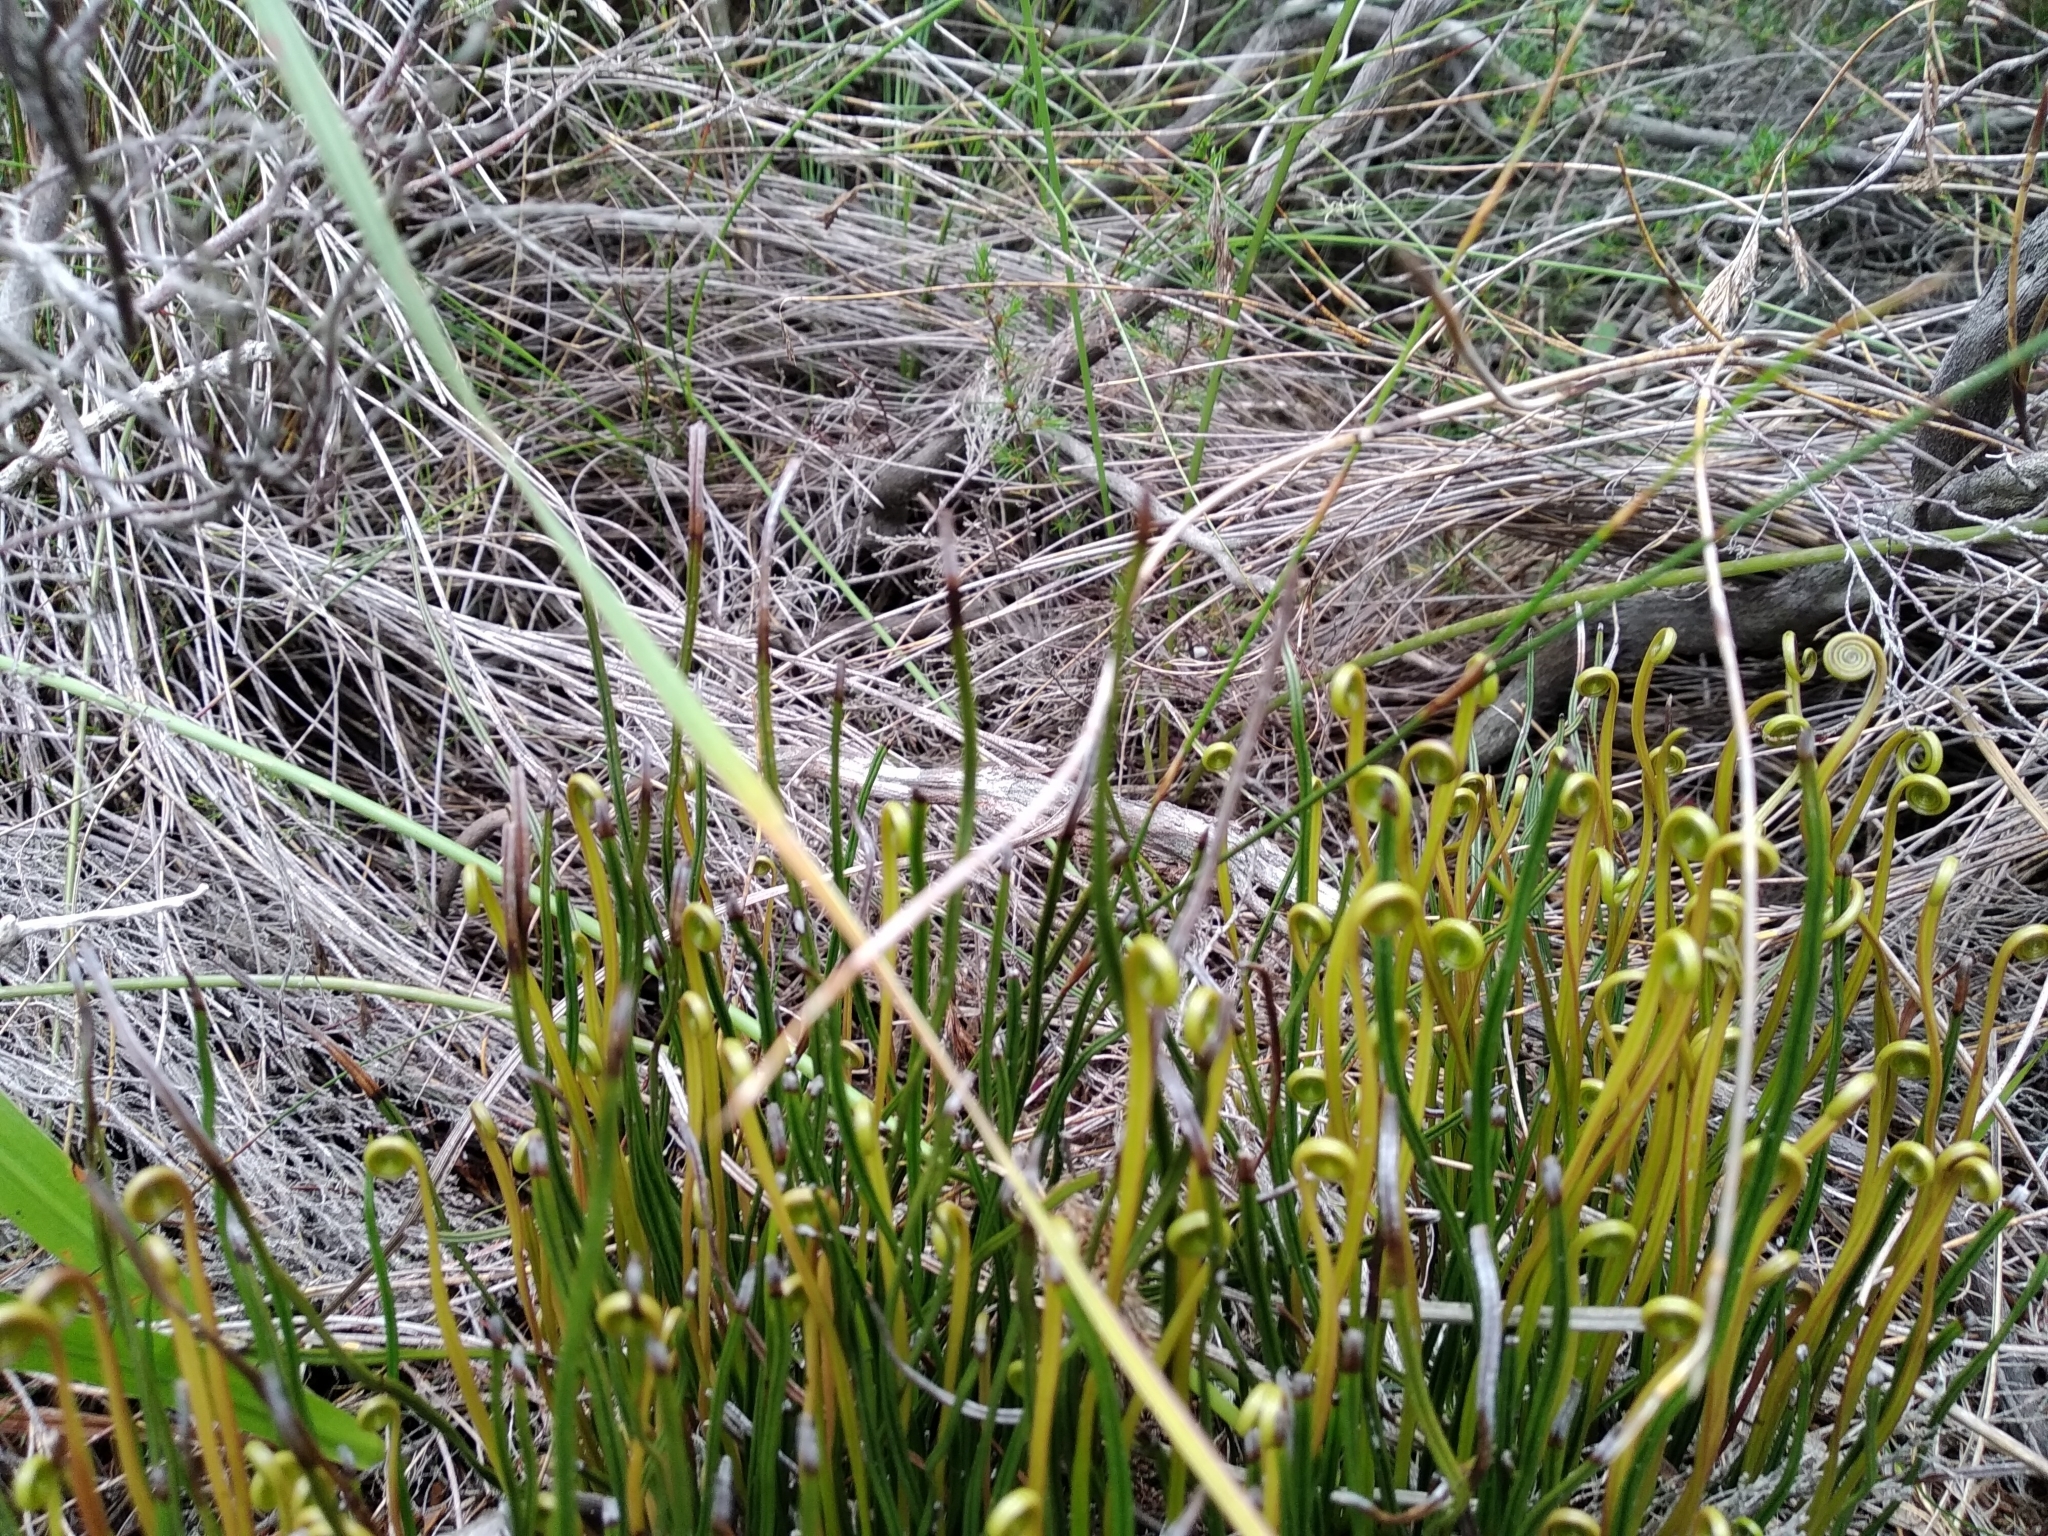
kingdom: Plantae
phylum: Tracheophyta
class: Polypodiopsida
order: Schizaeales
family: Schizaeaceae
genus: Schizaea
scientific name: Schizaea pectinata
